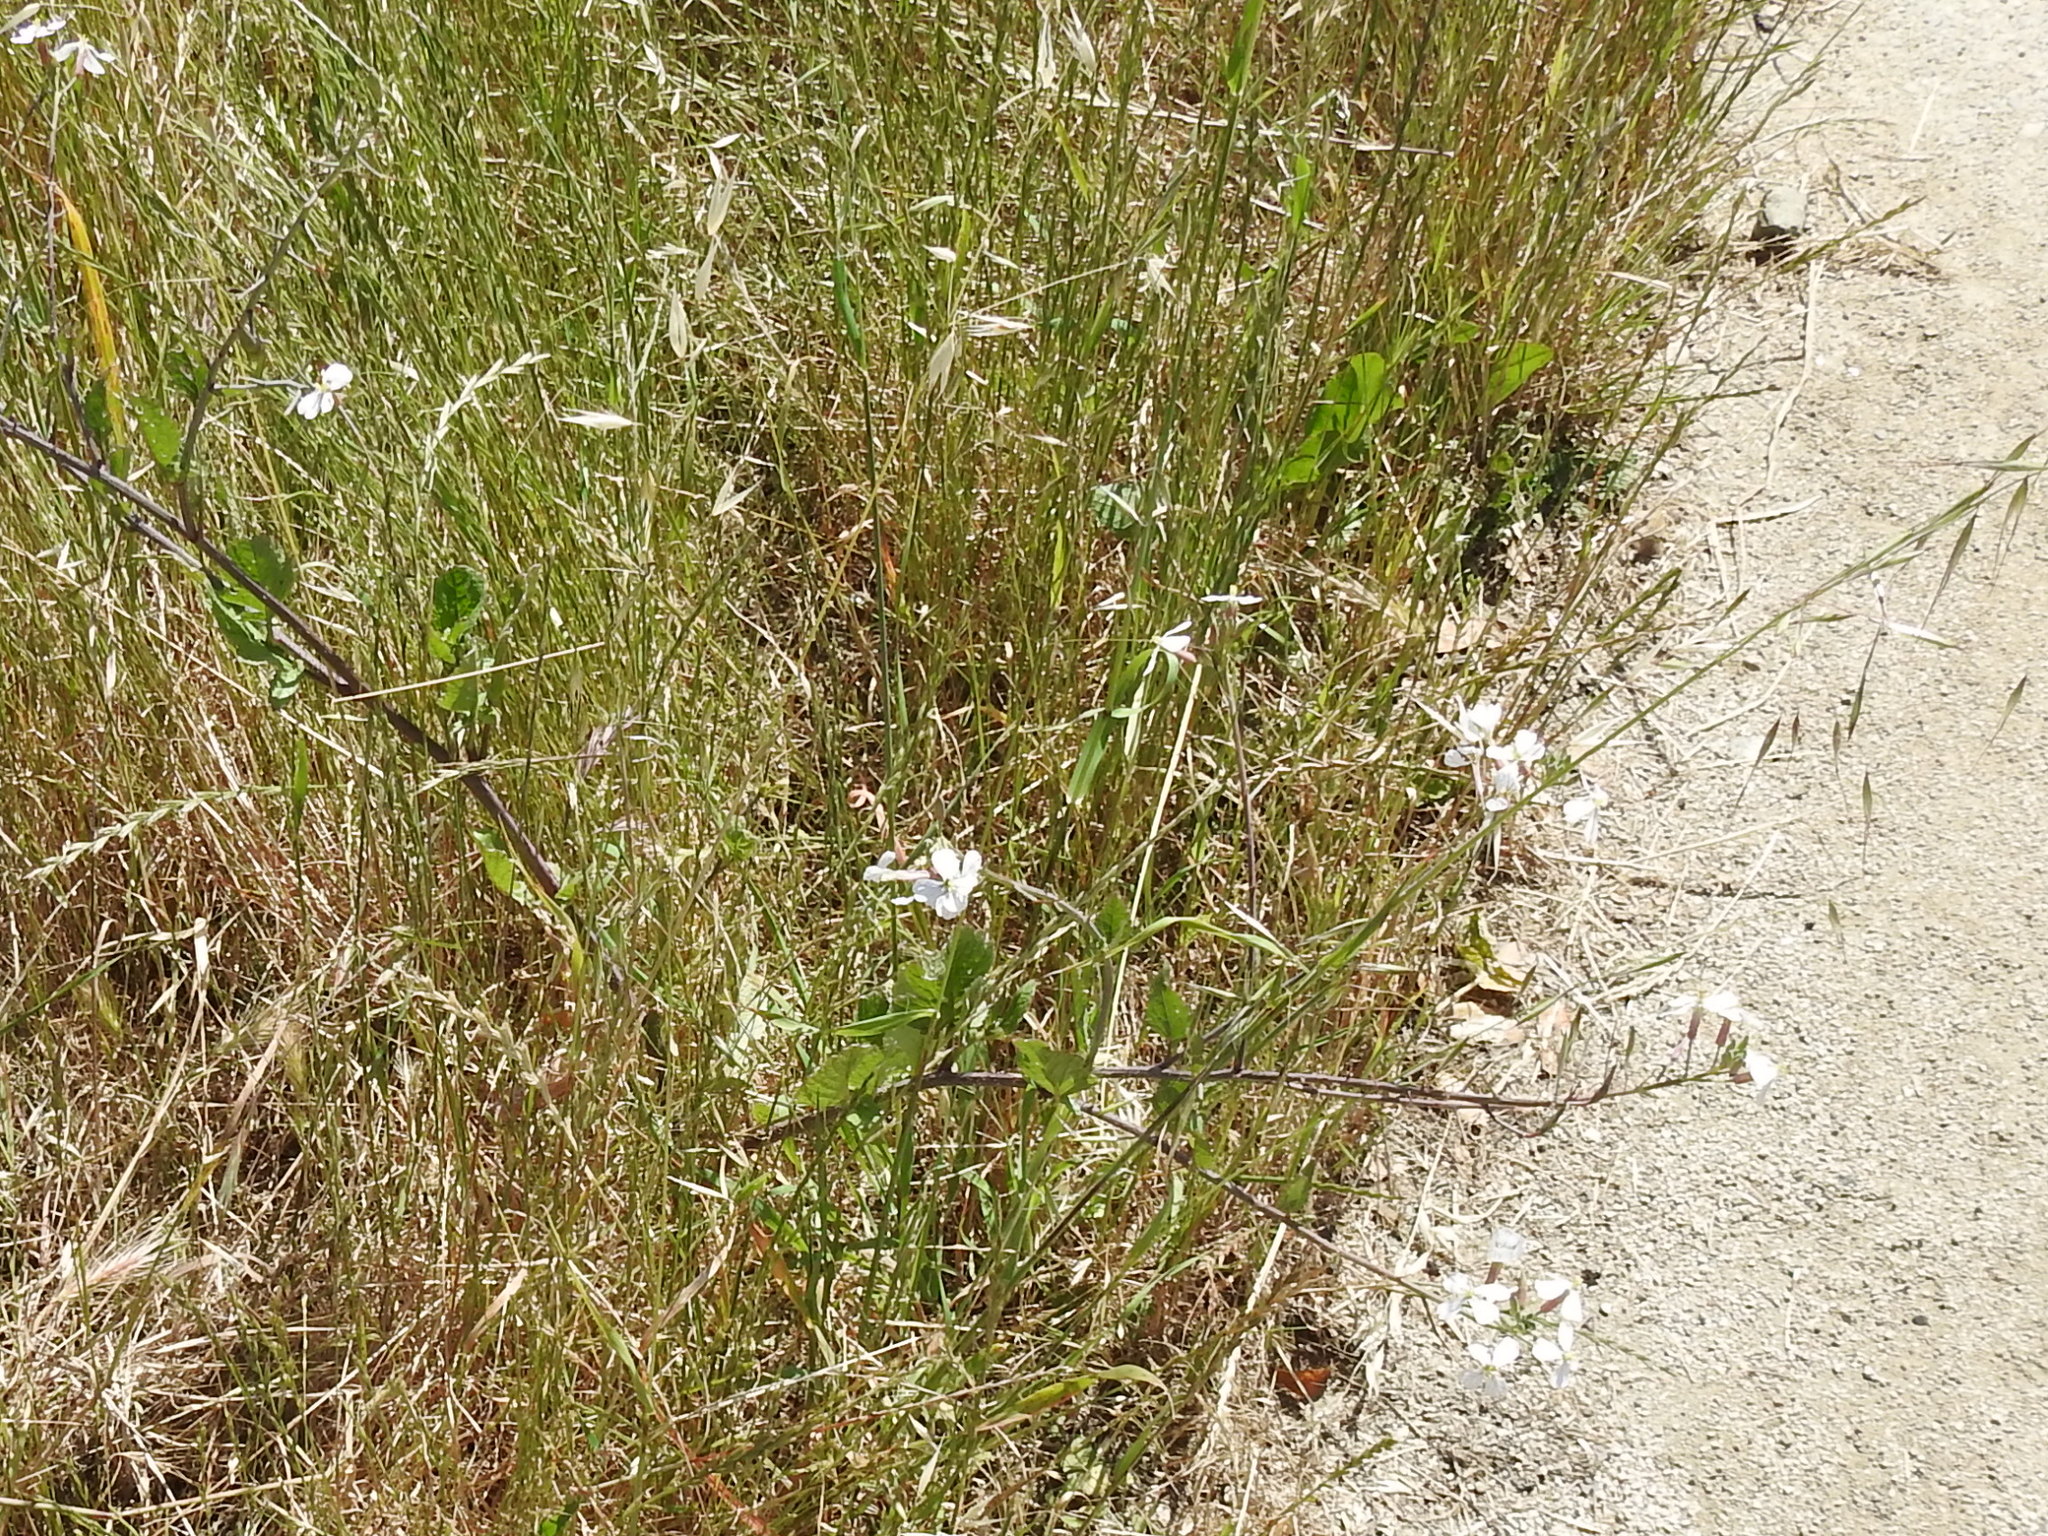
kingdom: Plantae
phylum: Tracheophyta
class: Magnoliopsida
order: Brassicales
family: Brassicaceae
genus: Raphanus
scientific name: Raphanus sativus
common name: Cultivated radish
